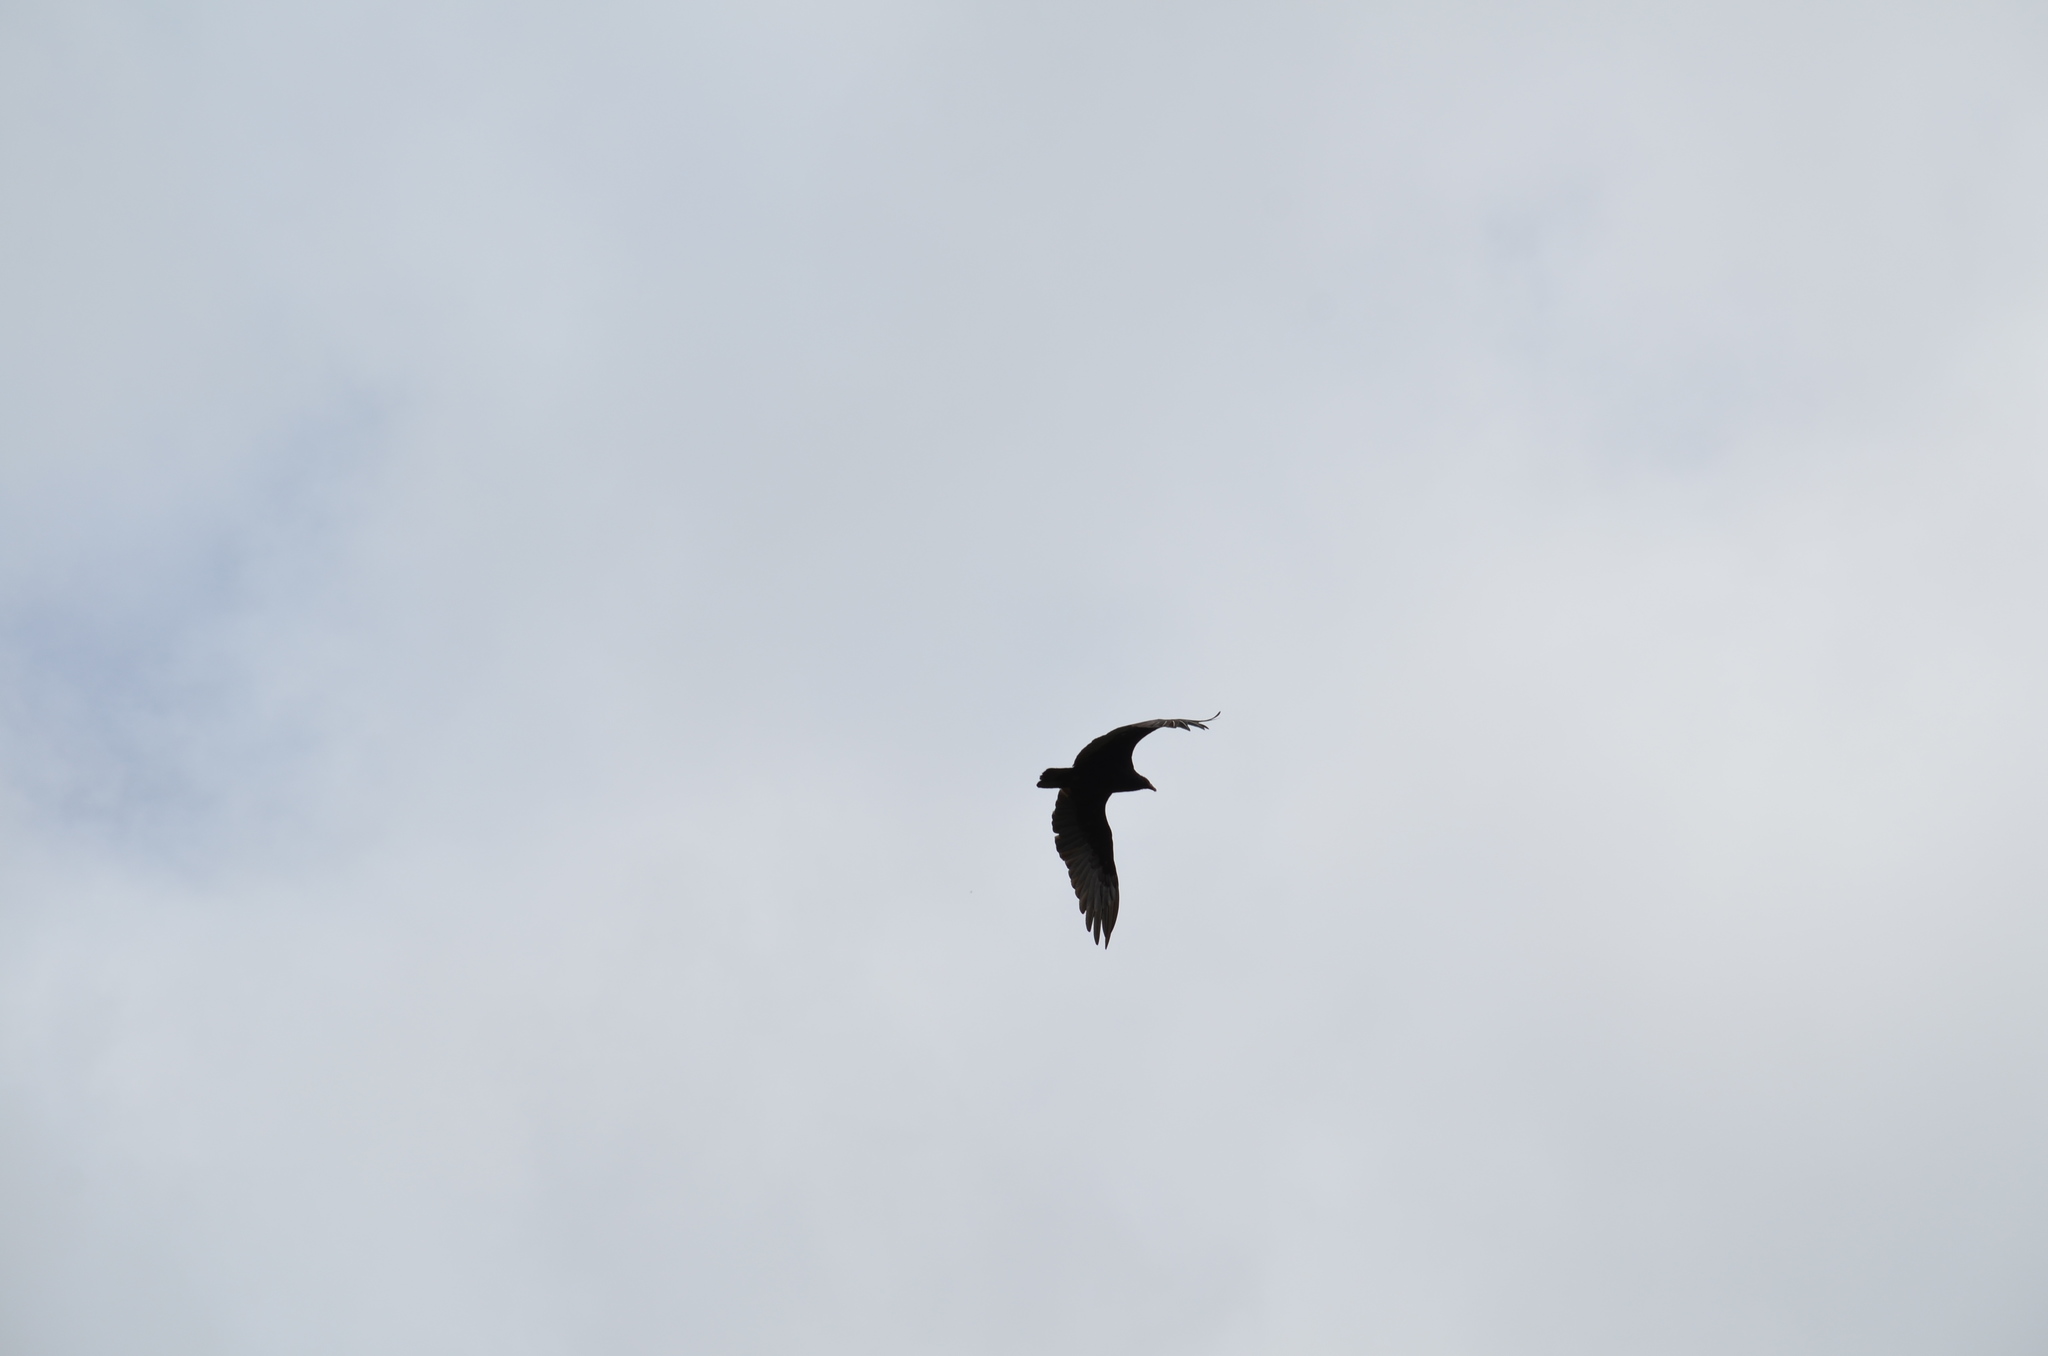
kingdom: Animalia
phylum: Chordata
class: Aves
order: Accipitriformes
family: Cathartidae
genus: Cathartes
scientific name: Cathartes aura
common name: Turkey vulture
